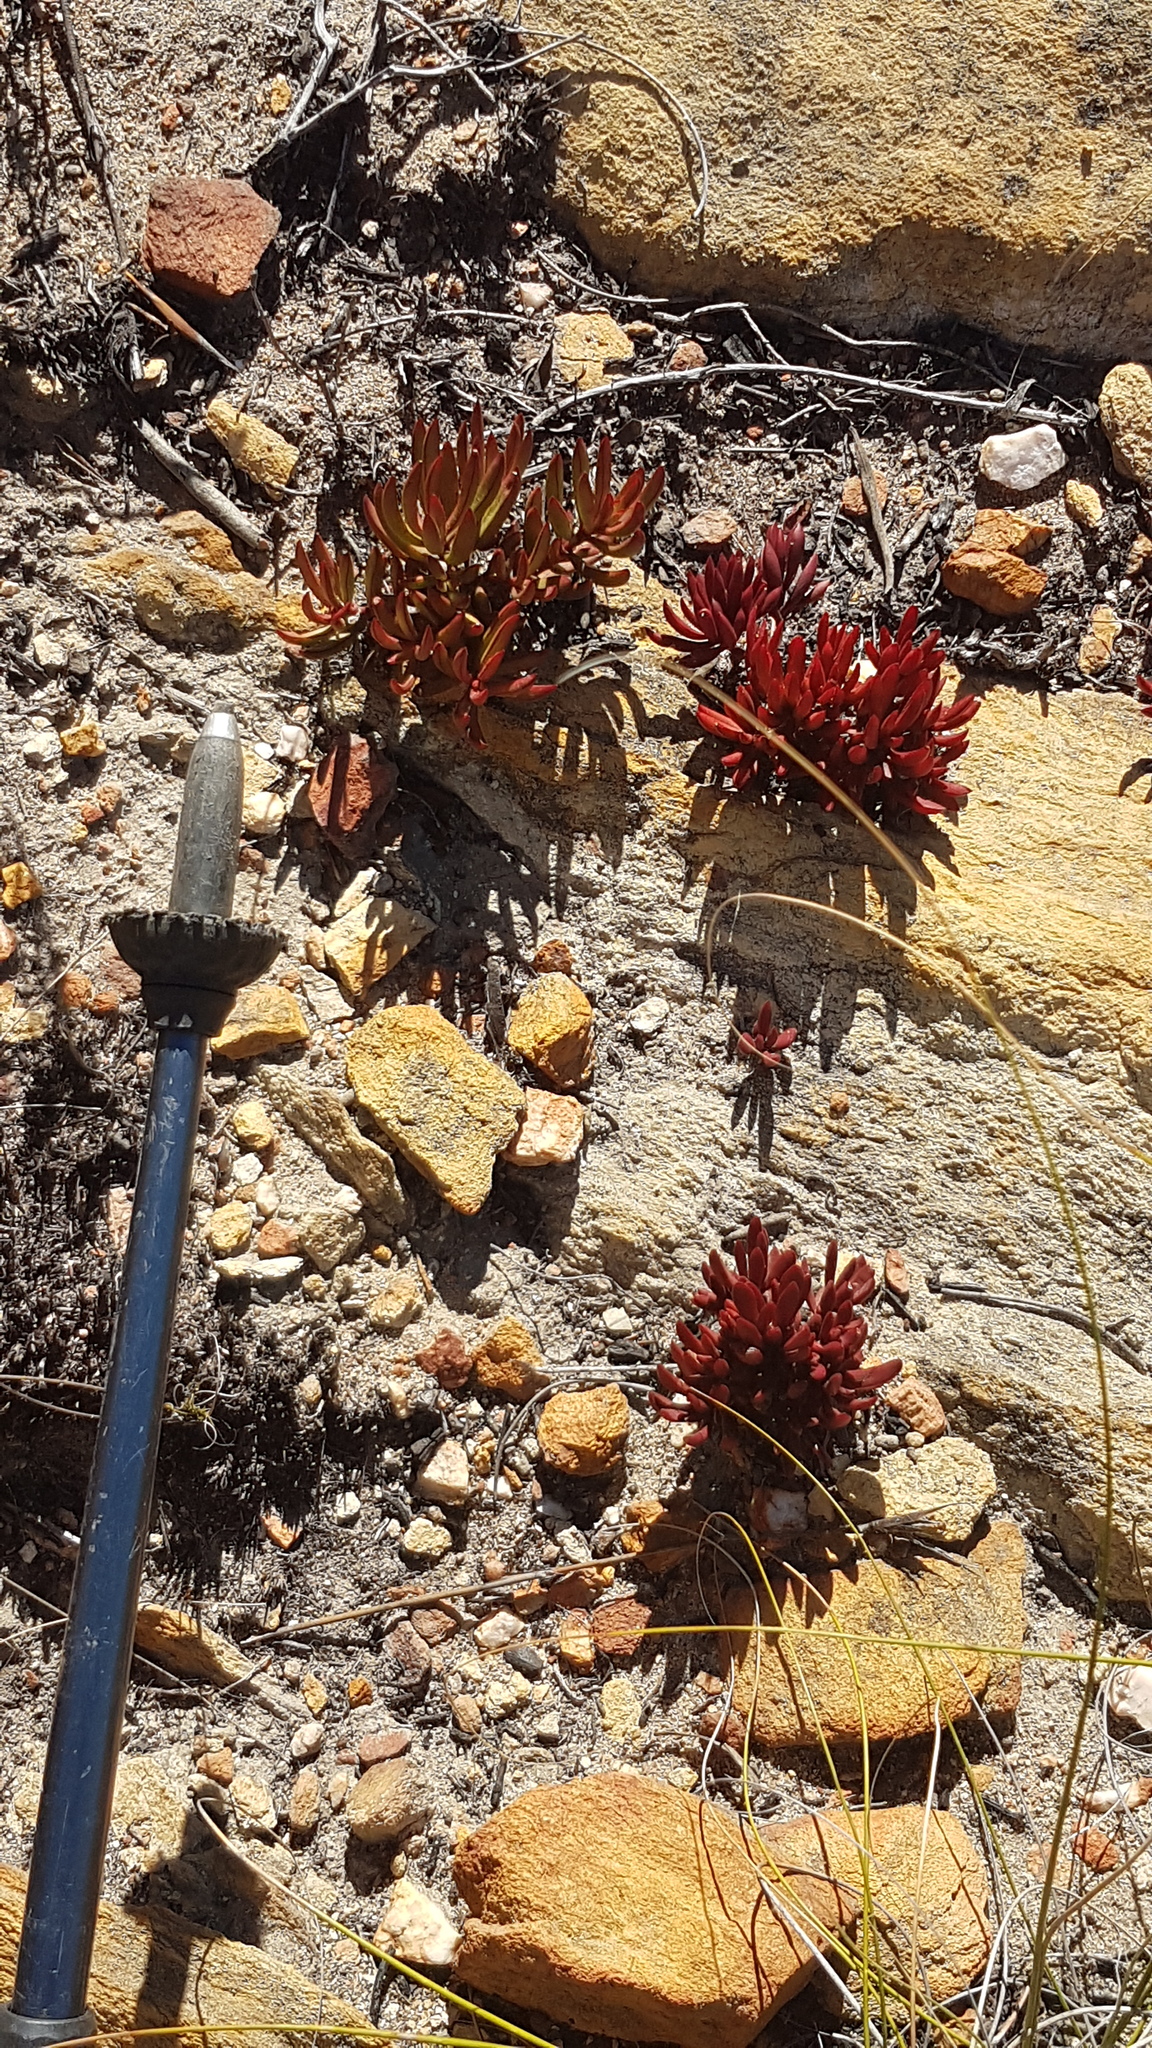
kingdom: Plantae
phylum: Tracheophyta
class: Magnoliopsida
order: Saxifragales
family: Crassulaceae
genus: Crassula
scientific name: Crassula atropurpurea
